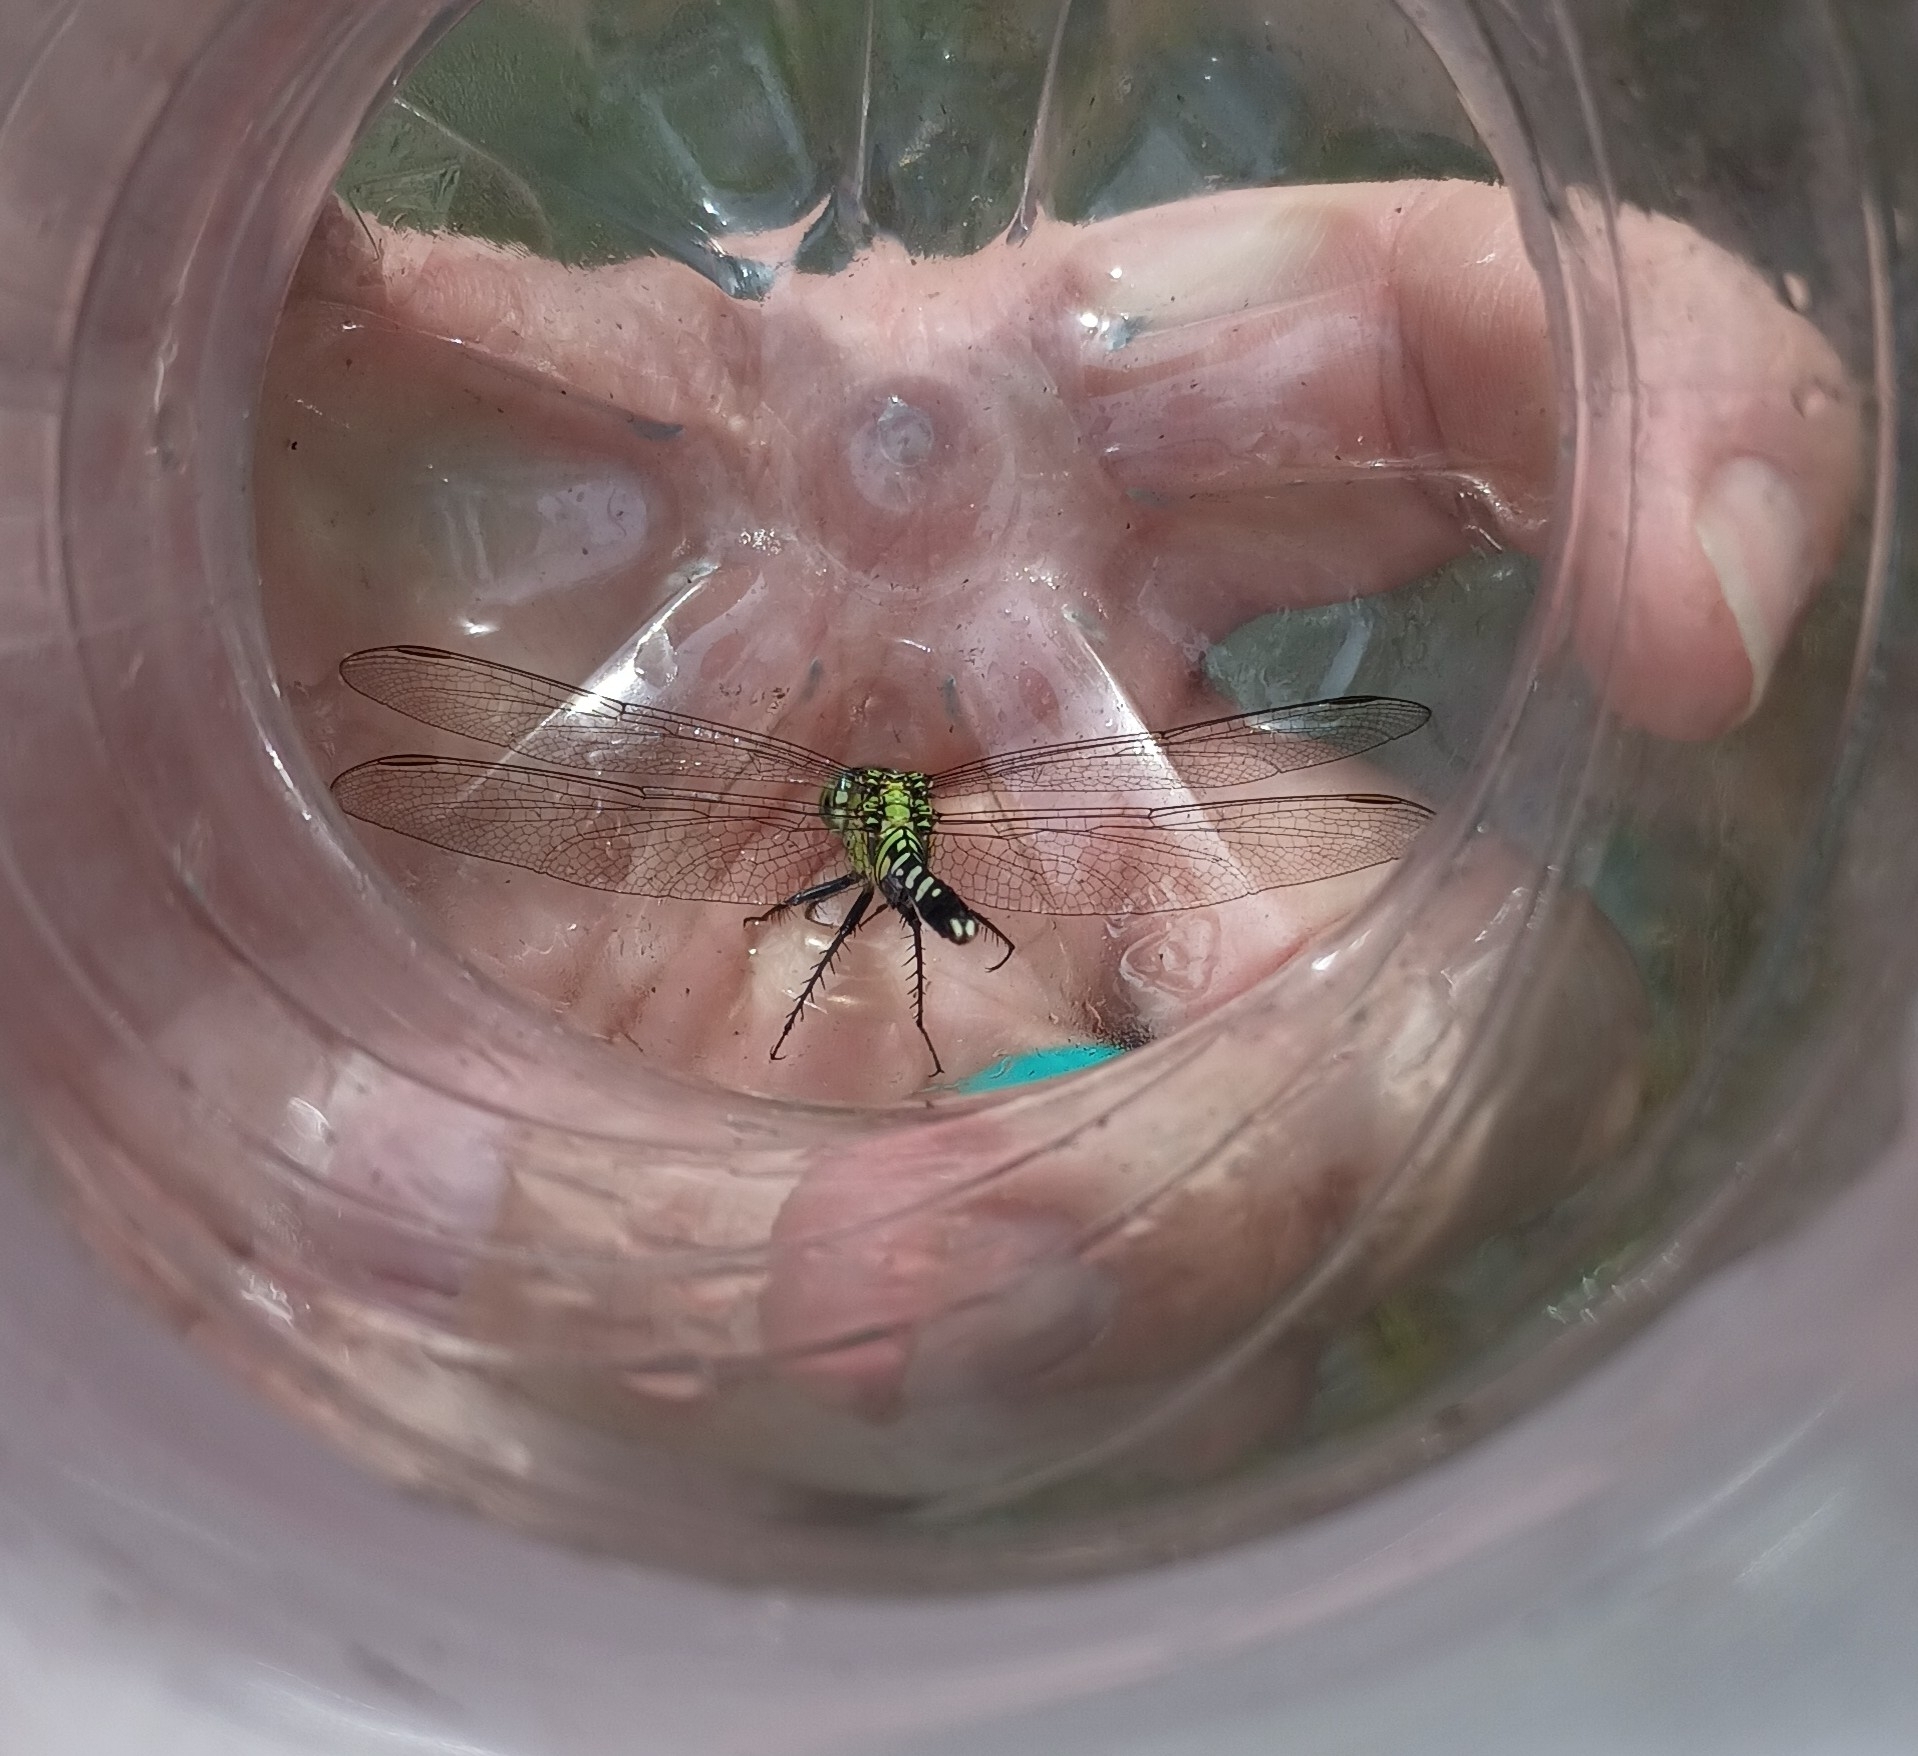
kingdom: Animalia
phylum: Arthropoda
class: Insecta
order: Odonata
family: Libellulidae
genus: Erythemis
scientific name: Erythemis simplicicollis
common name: Eastern pondhawk
